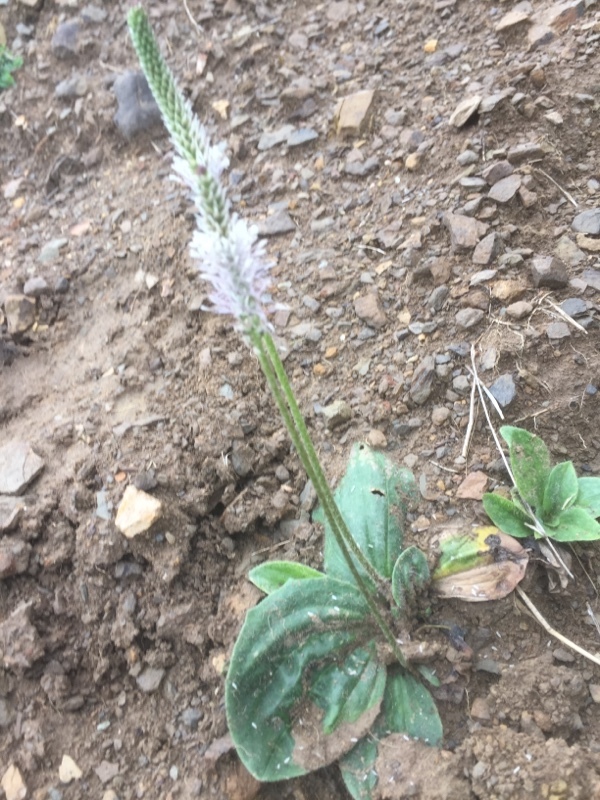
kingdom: Plantae
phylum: Tracheophyta
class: Magnoliopsida
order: Lamiales
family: Plantaginaceae
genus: Plantago
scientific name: Plantago media
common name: Hoary plantain
